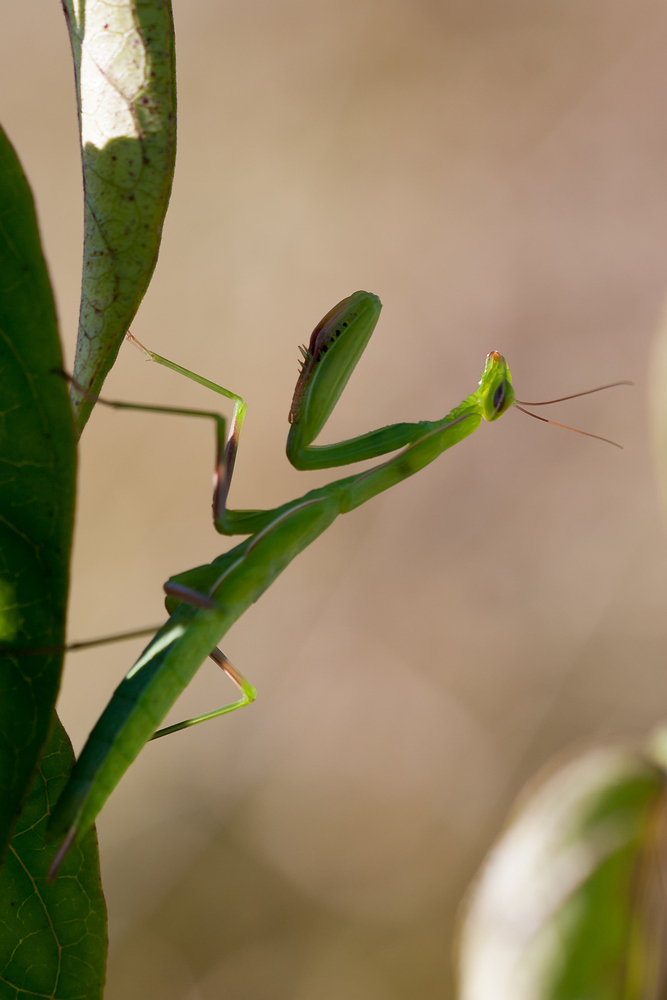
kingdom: Animalia
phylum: Arthropoda
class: Insecta
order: Mantodea
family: Mantidae
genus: Mantis
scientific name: Mantis religiosa
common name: Praying mantis
